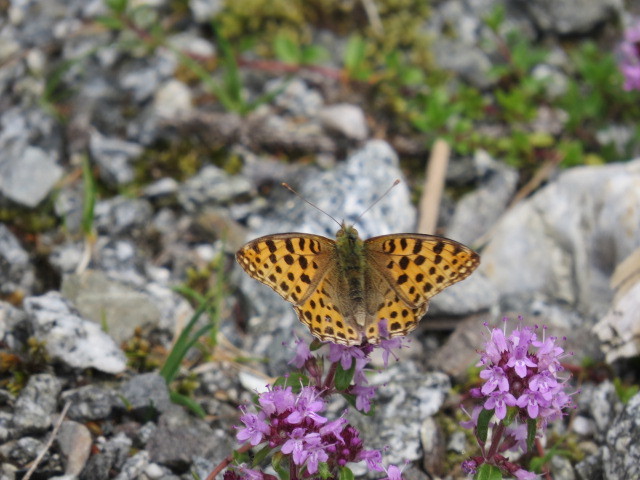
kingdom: Animalia
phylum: Arthropoda
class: Insecta
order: Lepidoptera
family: Nymphalidae
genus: Issoria
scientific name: Issoria lathonia
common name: Queen of spain fritillary
